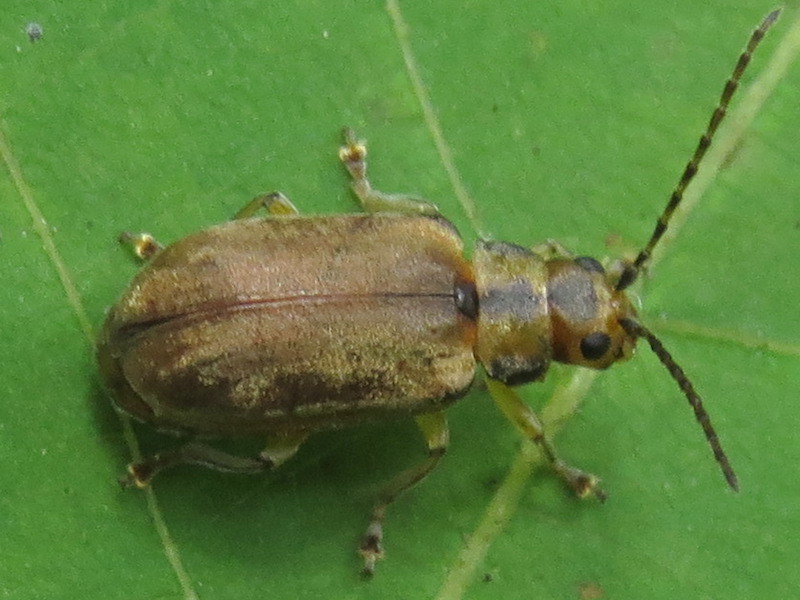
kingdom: Animalia
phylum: Arthropoda
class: Insecta
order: Coleoptera
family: Chrysomelidae
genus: Pyrrhalta
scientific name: Pyrrhalta viburni
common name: Guelder-rose leaf beetle
